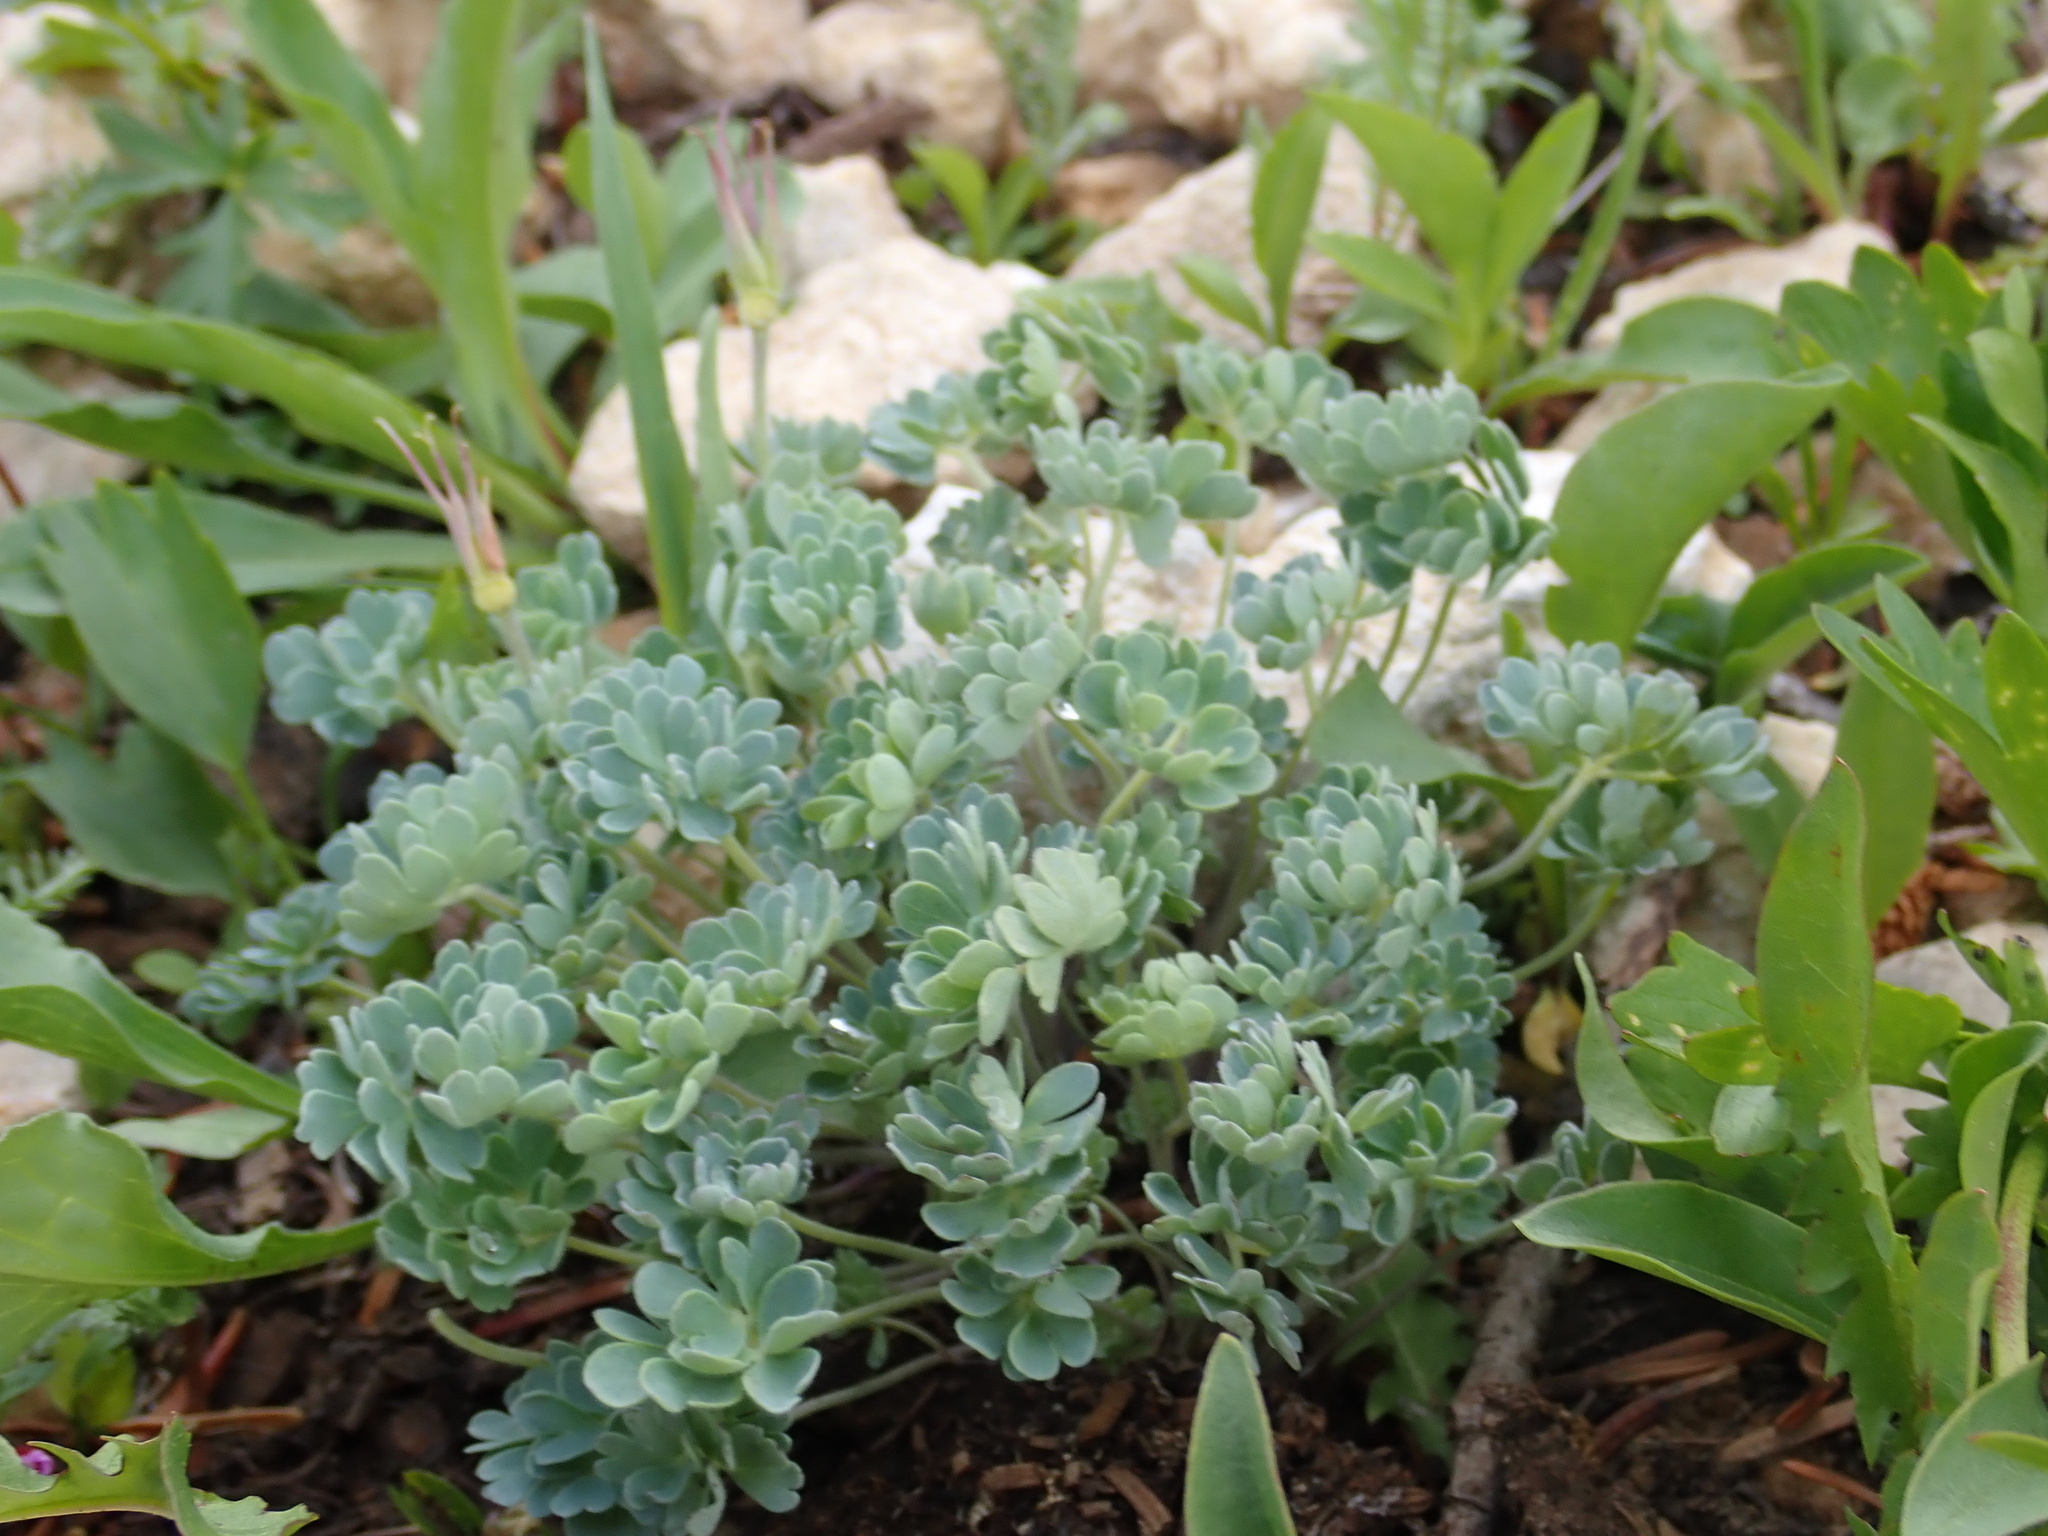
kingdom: Plantae
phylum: Tracheophyta
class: Magnoliopsida
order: Ranunculales
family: Ranunculaceae
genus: Aquilegia
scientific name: Aquilegia jonesii
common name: Jones' columbine
